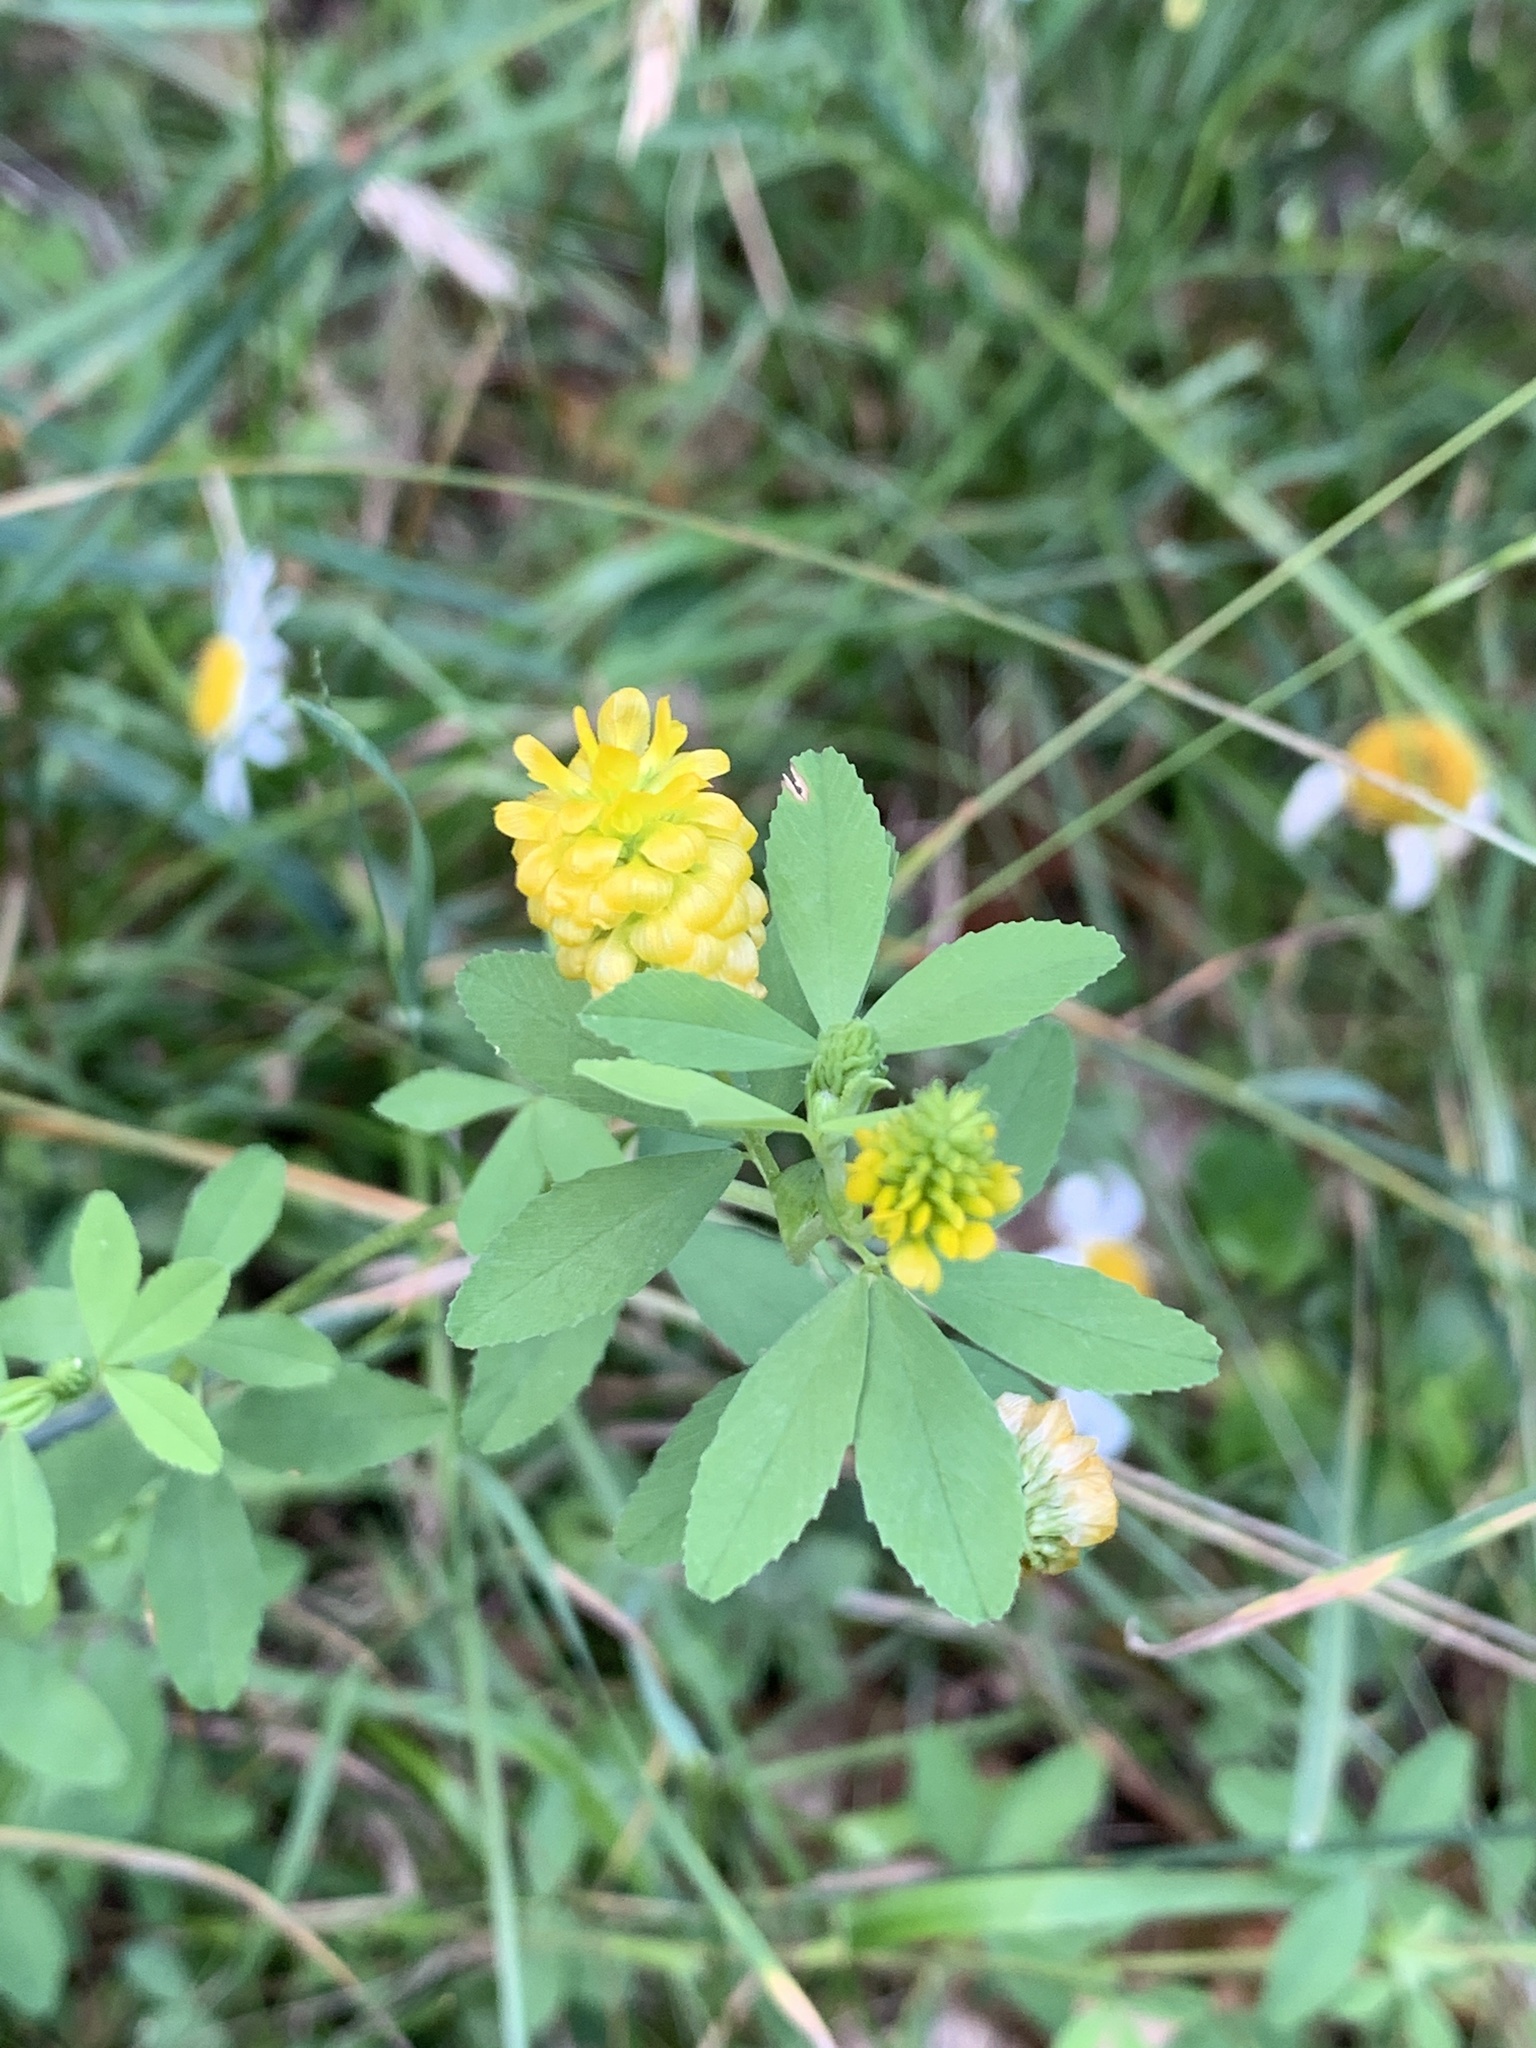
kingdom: Plantae
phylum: Tracheophyta
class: Magnoliopsida
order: Fabales
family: Fabaceae
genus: Trifolium
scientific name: Trifolium aureum
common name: Golden clover
